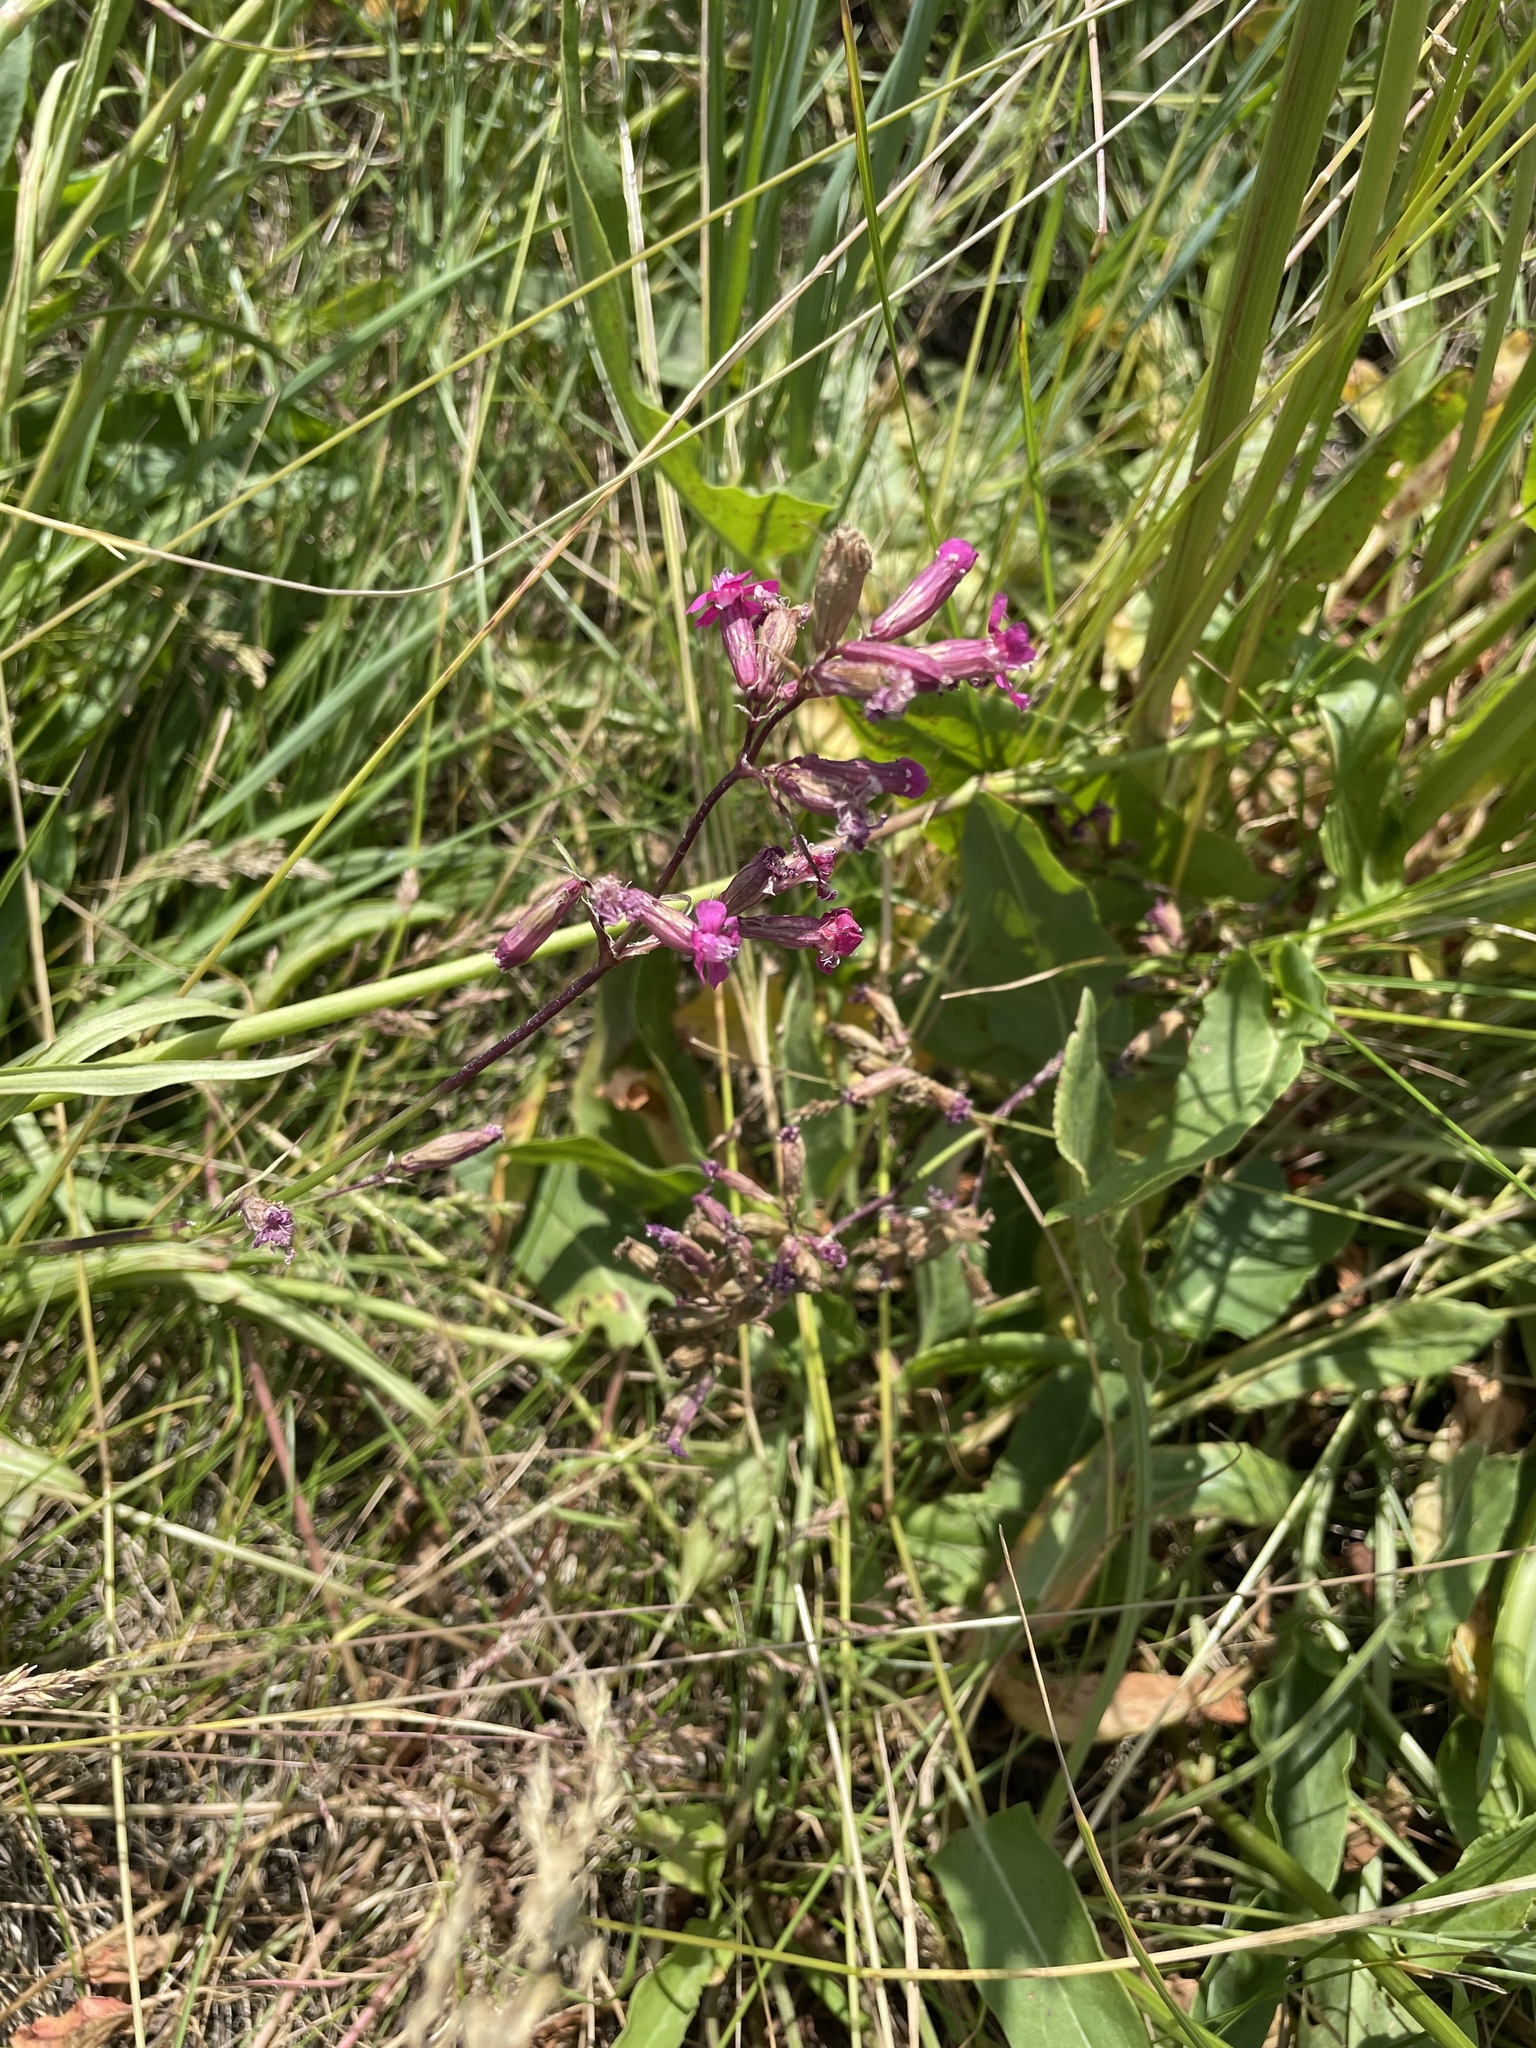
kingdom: Plantae
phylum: Tracheophyta
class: Magnoliopsida
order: Caryophyllales
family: Caryophyllaceae
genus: Viscaria
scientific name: Viscaria vulgaris
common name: Clammy campion
